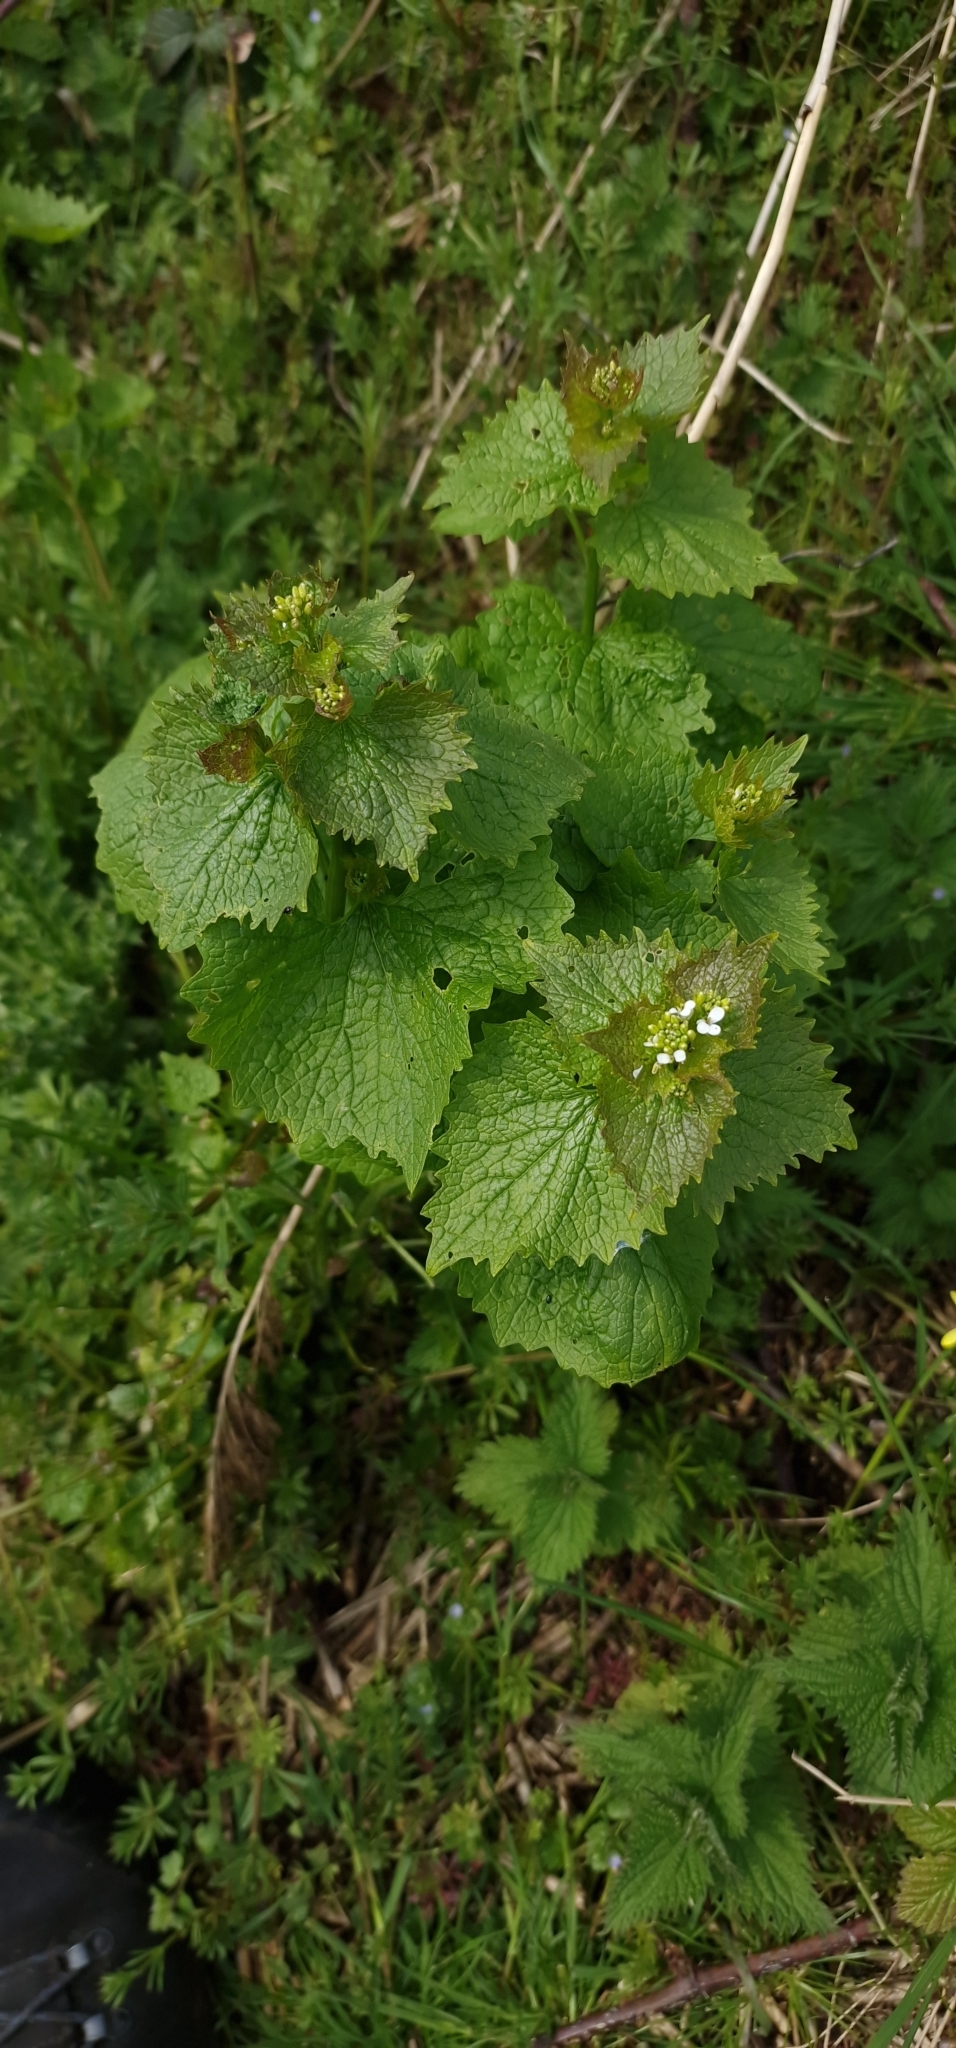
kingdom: Plantae
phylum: Tracheophyta
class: Magnoliopsida
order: Brassicales
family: Brassicaceae
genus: Alliaria
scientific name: Alliaria petiolata
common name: Garlic mustard
